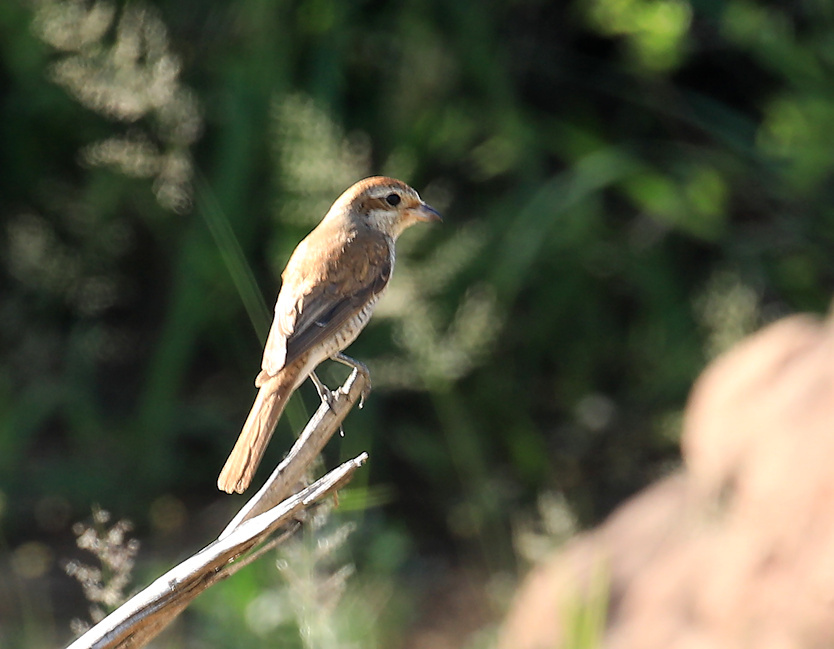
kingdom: Animalia
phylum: Chordata
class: Aves
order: Passeriformes
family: Laniidae
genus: Lanius
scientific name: Lanius collurio
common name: Red-backed shrike
